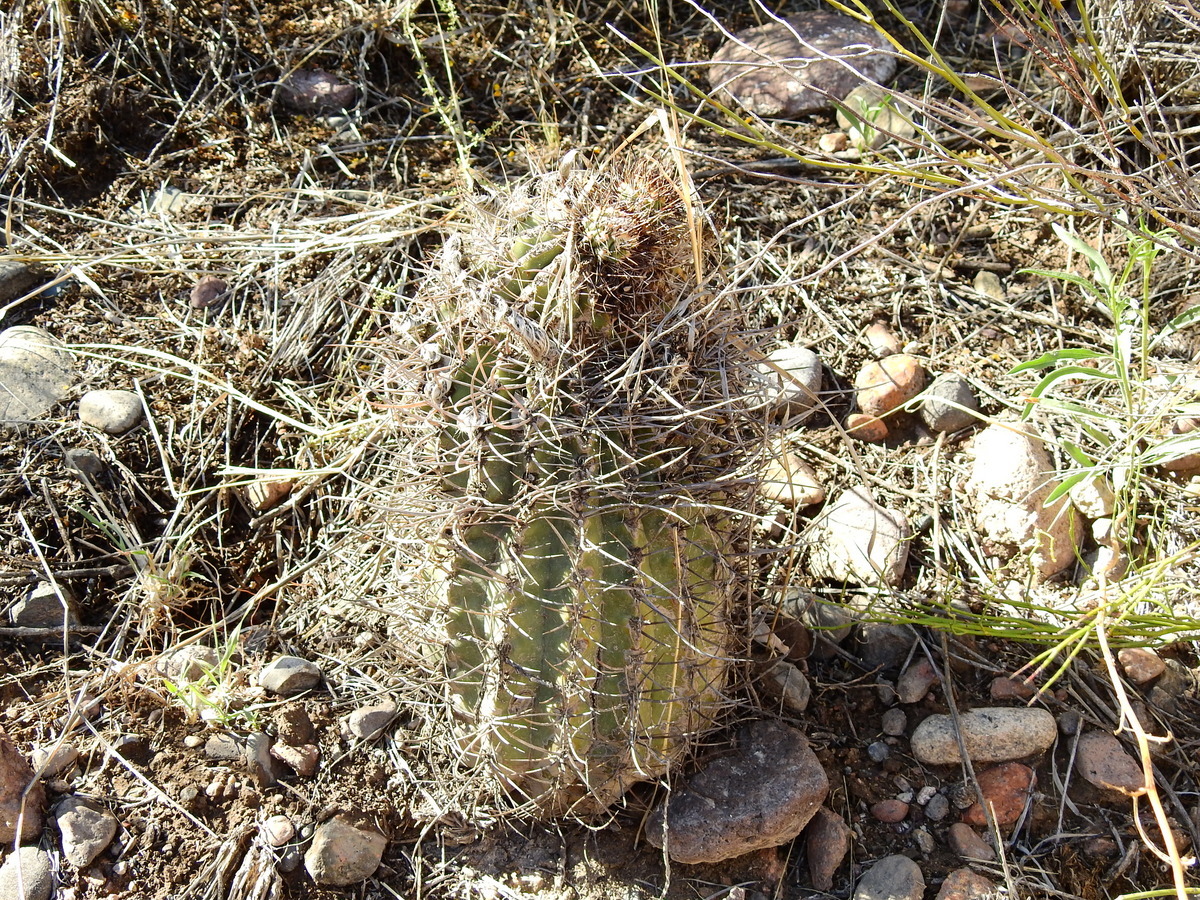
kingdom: Plantae
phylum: Tracheophyta
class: Magnoliopsida
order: Caryophyllales
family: Cactaceae
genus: Acanthocalycium
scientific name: Acanthocalycium leucanthum
